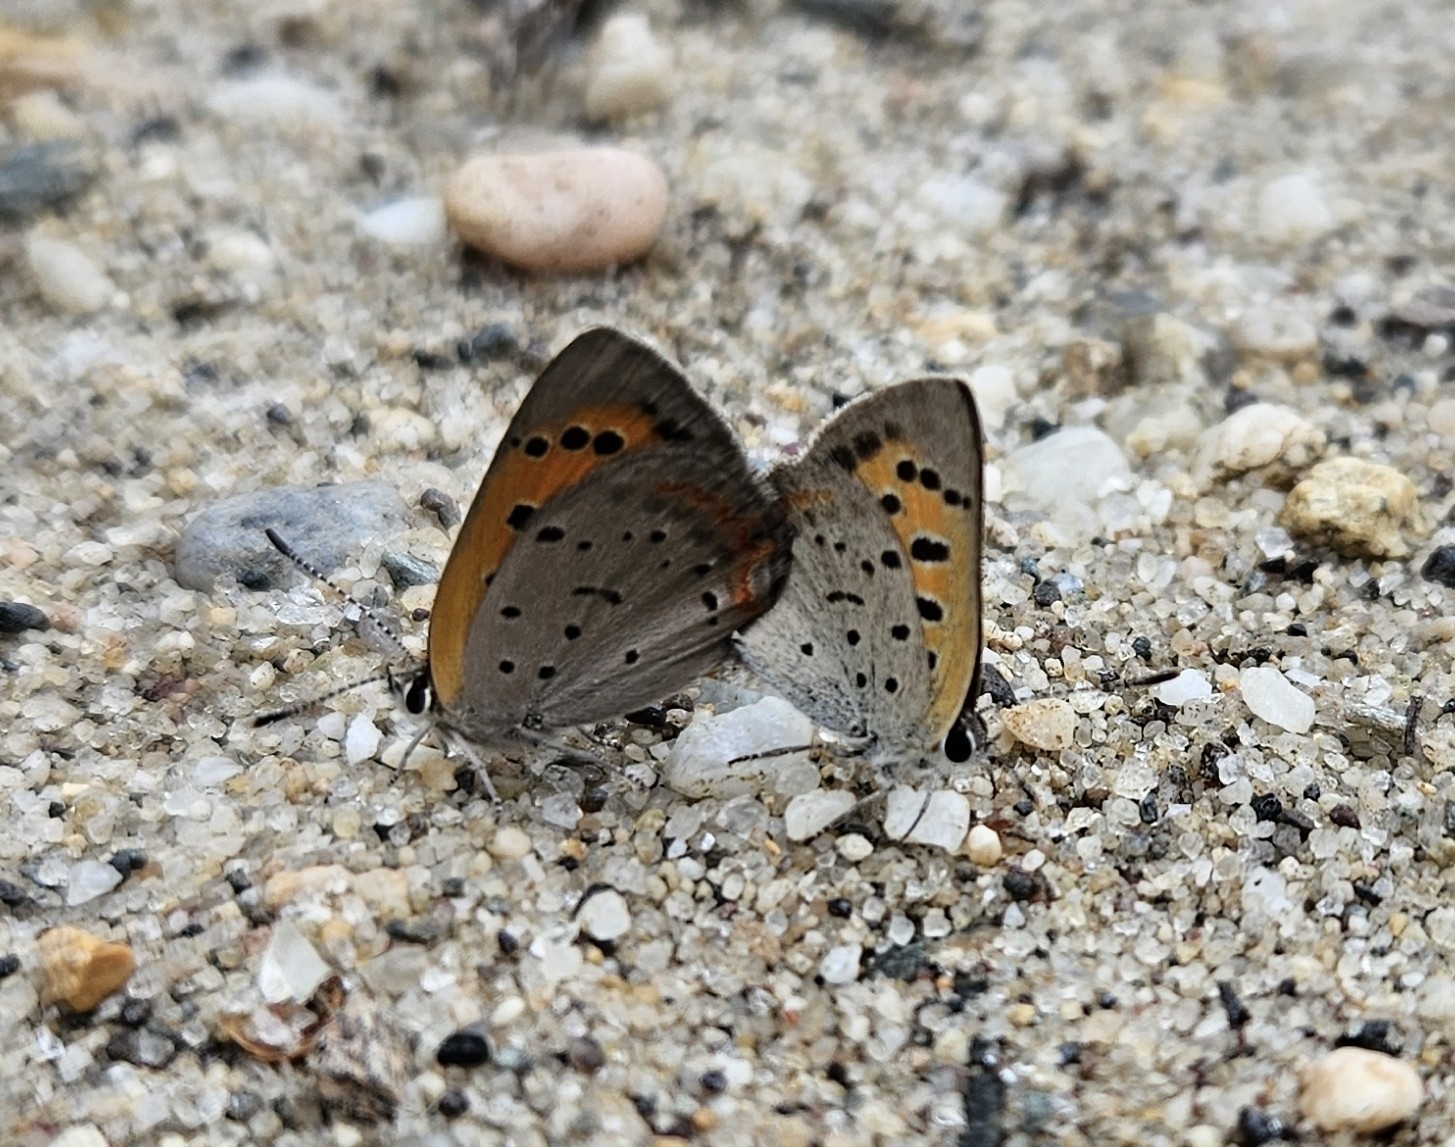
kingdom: Animalia
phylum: Arthropoda
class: Insecta
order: Lepidoptera
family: Lycaenidae
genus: Lycaena
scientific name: Lycaena hypophlaeas
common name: American copper
